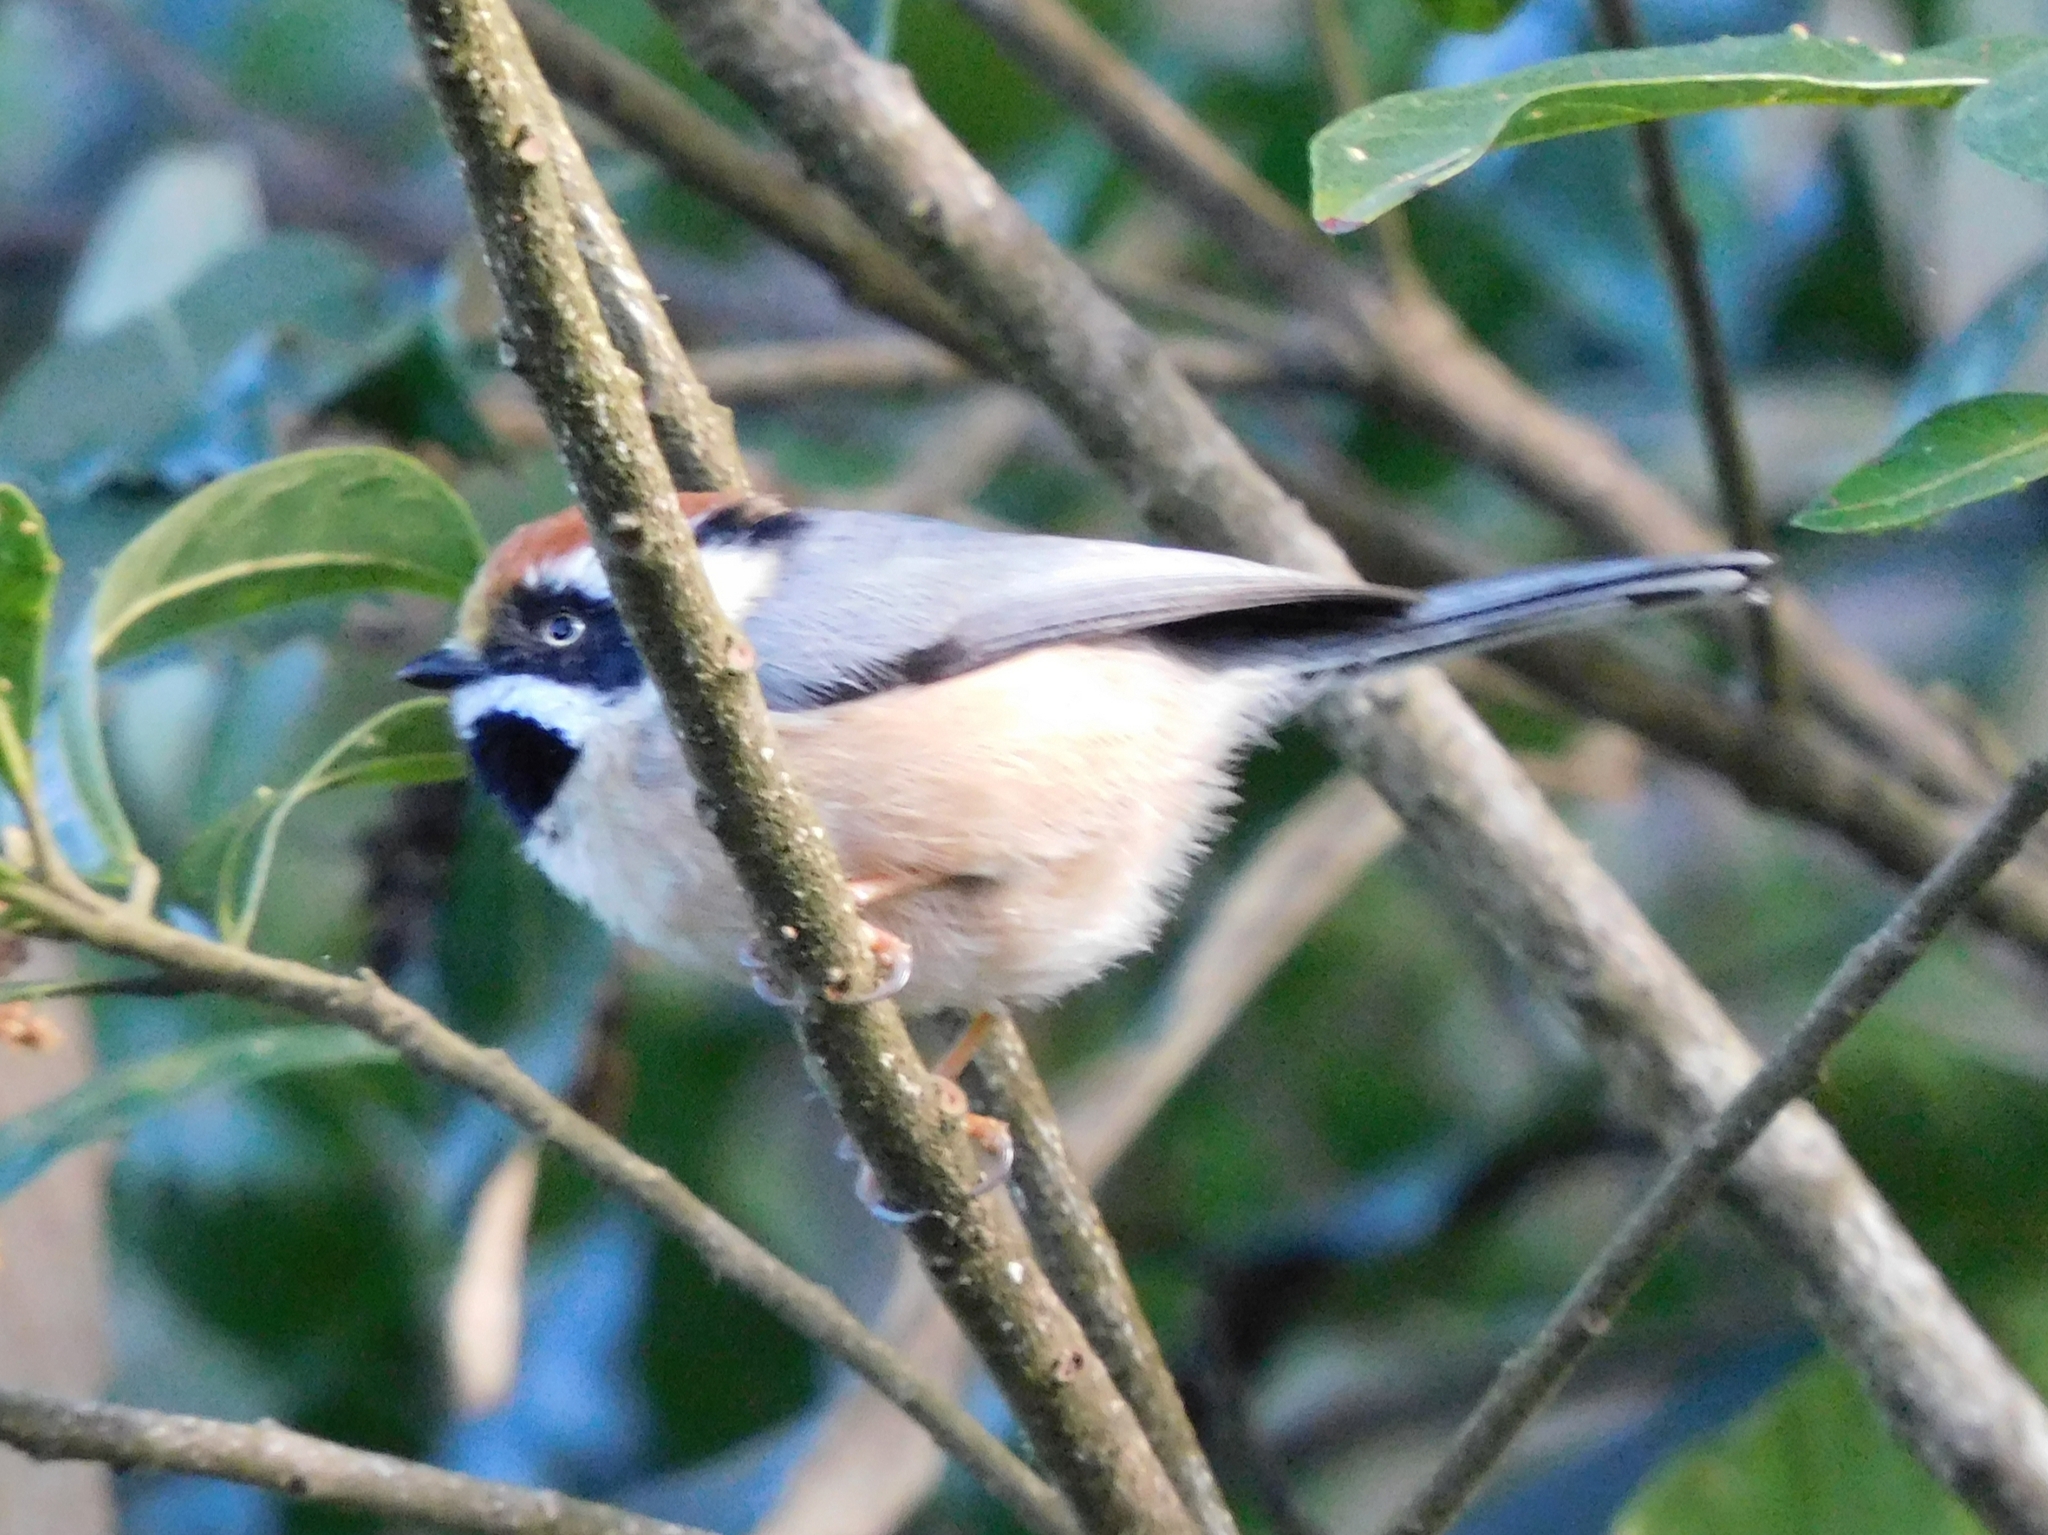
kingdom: Animalia
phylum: Chordata
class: Aves
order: Passeriformes
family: Aegithalidae
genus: Aegithalos
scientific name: Aegithalos concinnus
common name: Black-throated bushtit
